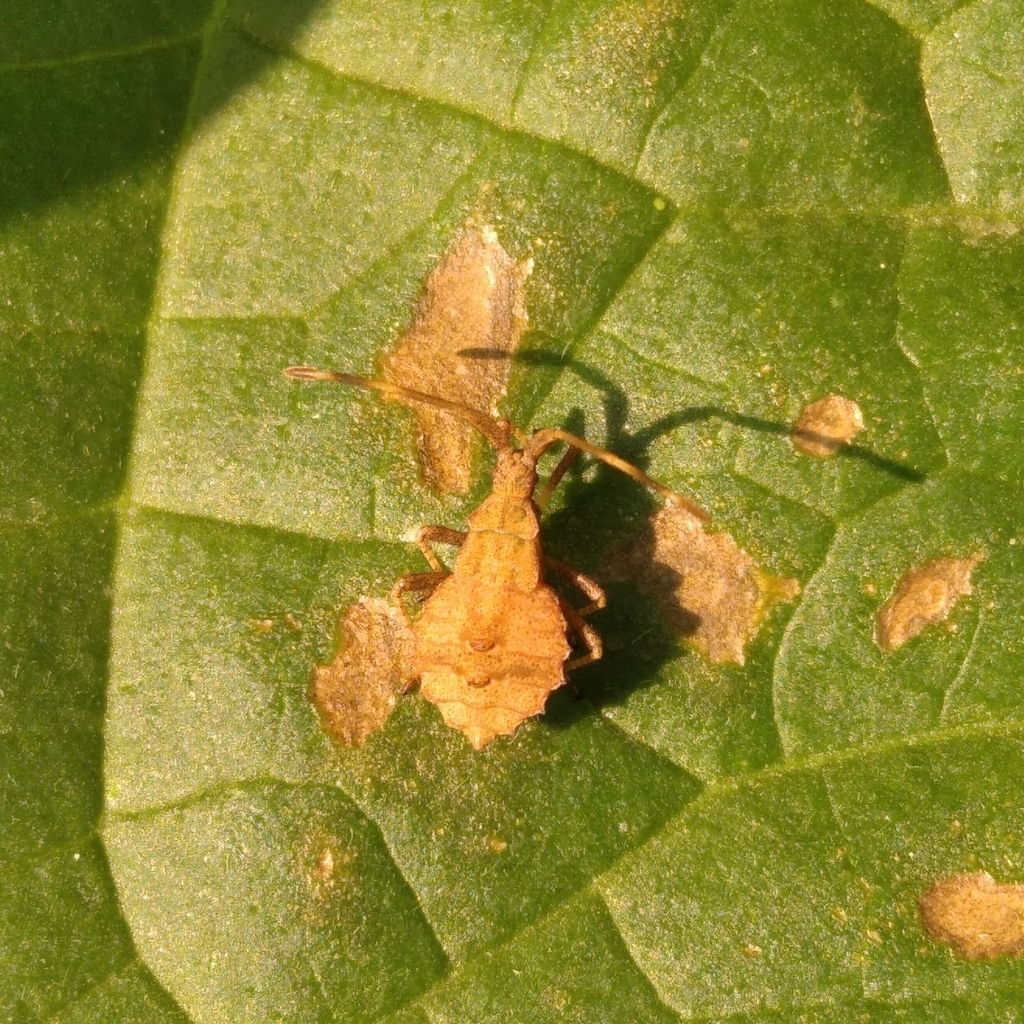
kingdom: Animalia
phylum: Arthropoda
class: Insecta
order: Hemiptera
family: Coreidae
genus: Syromastus
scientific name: Syromastus rhombeus
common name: Rhombic leatherbug
